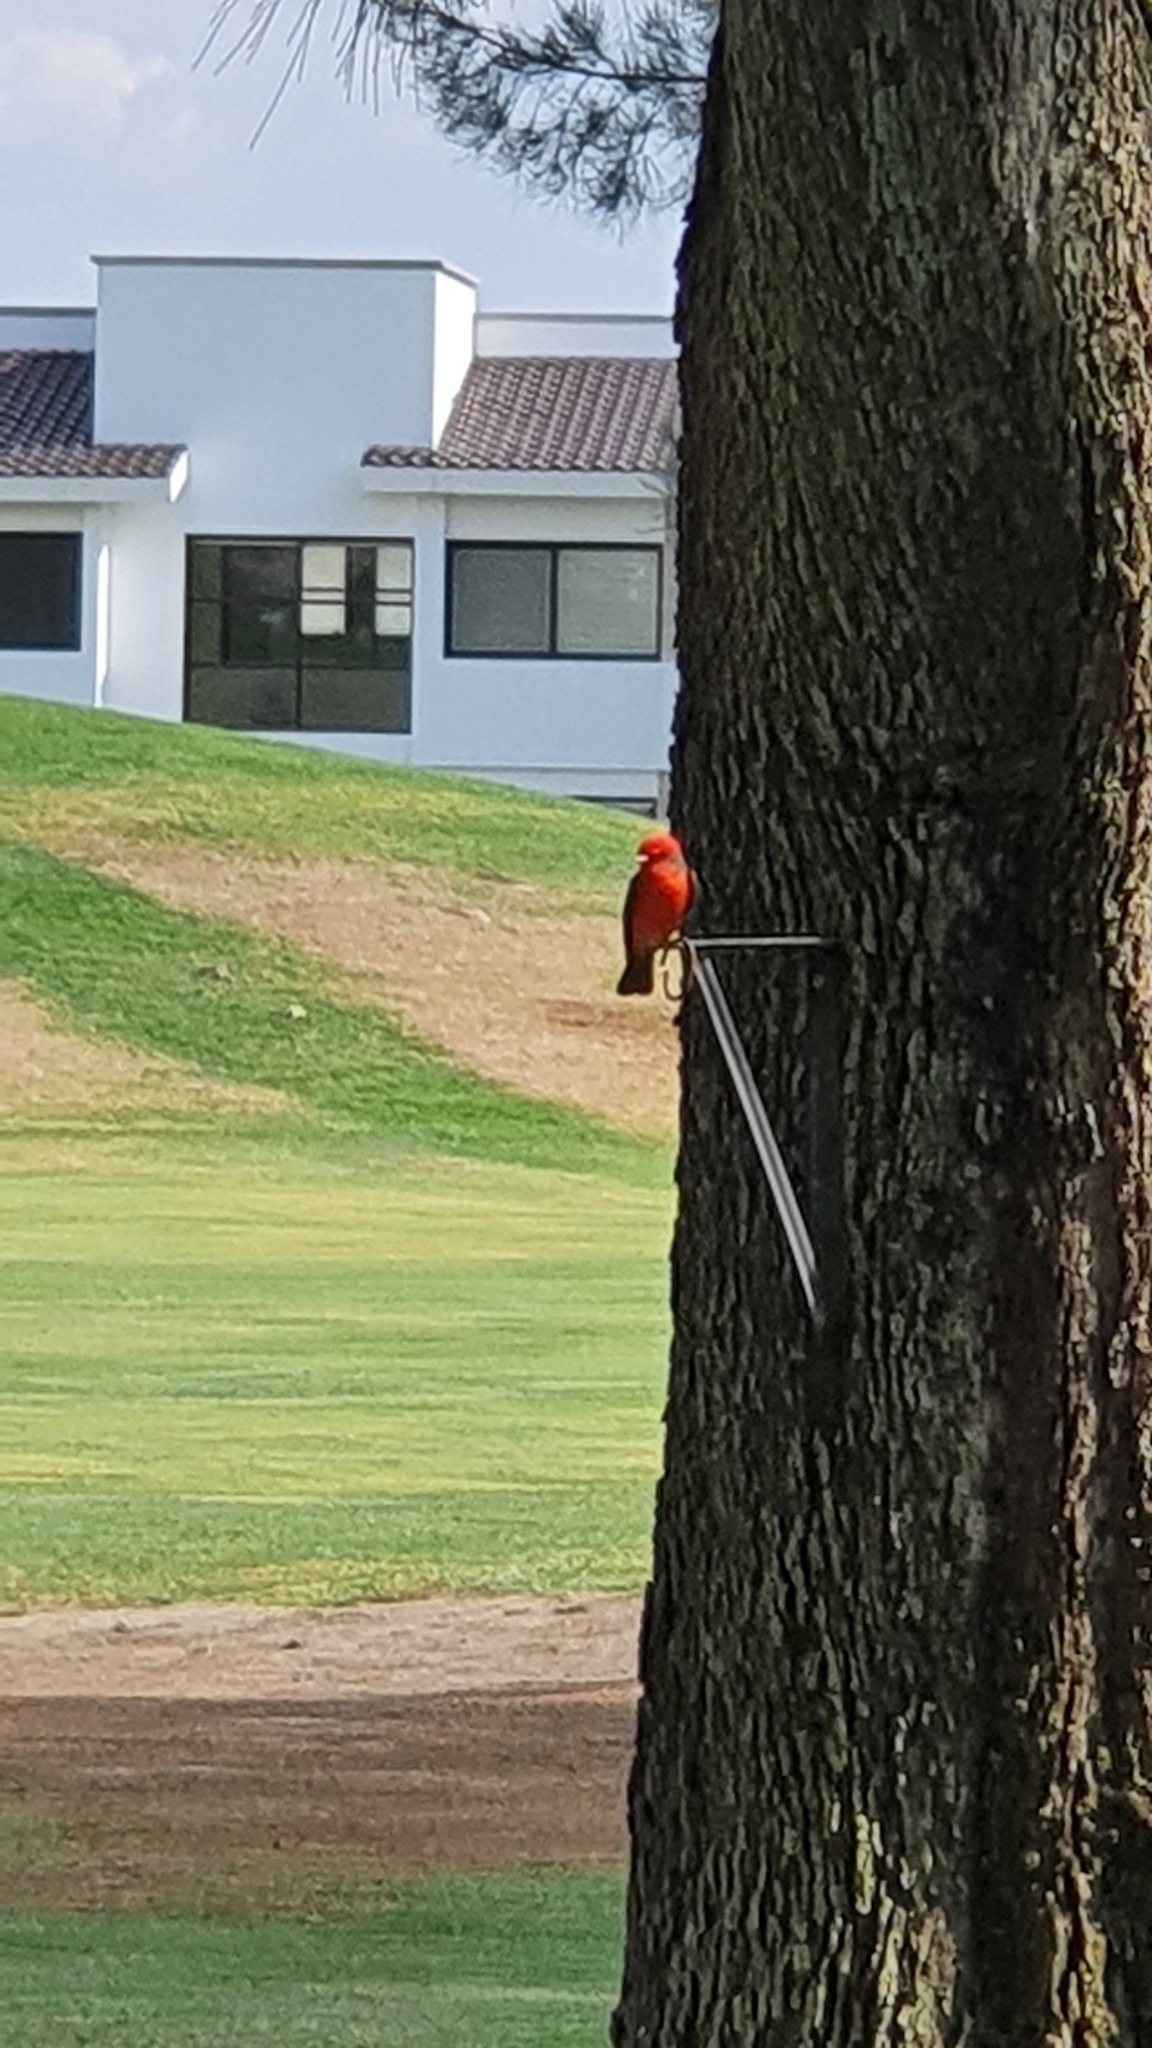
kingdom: Animalia
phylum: Chordata
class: Aves
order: Passeriformes
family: Tyrannidae
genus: Pyrocephalus
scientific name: Pyrocephalus rubinus
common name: Vermilion flycatcher
